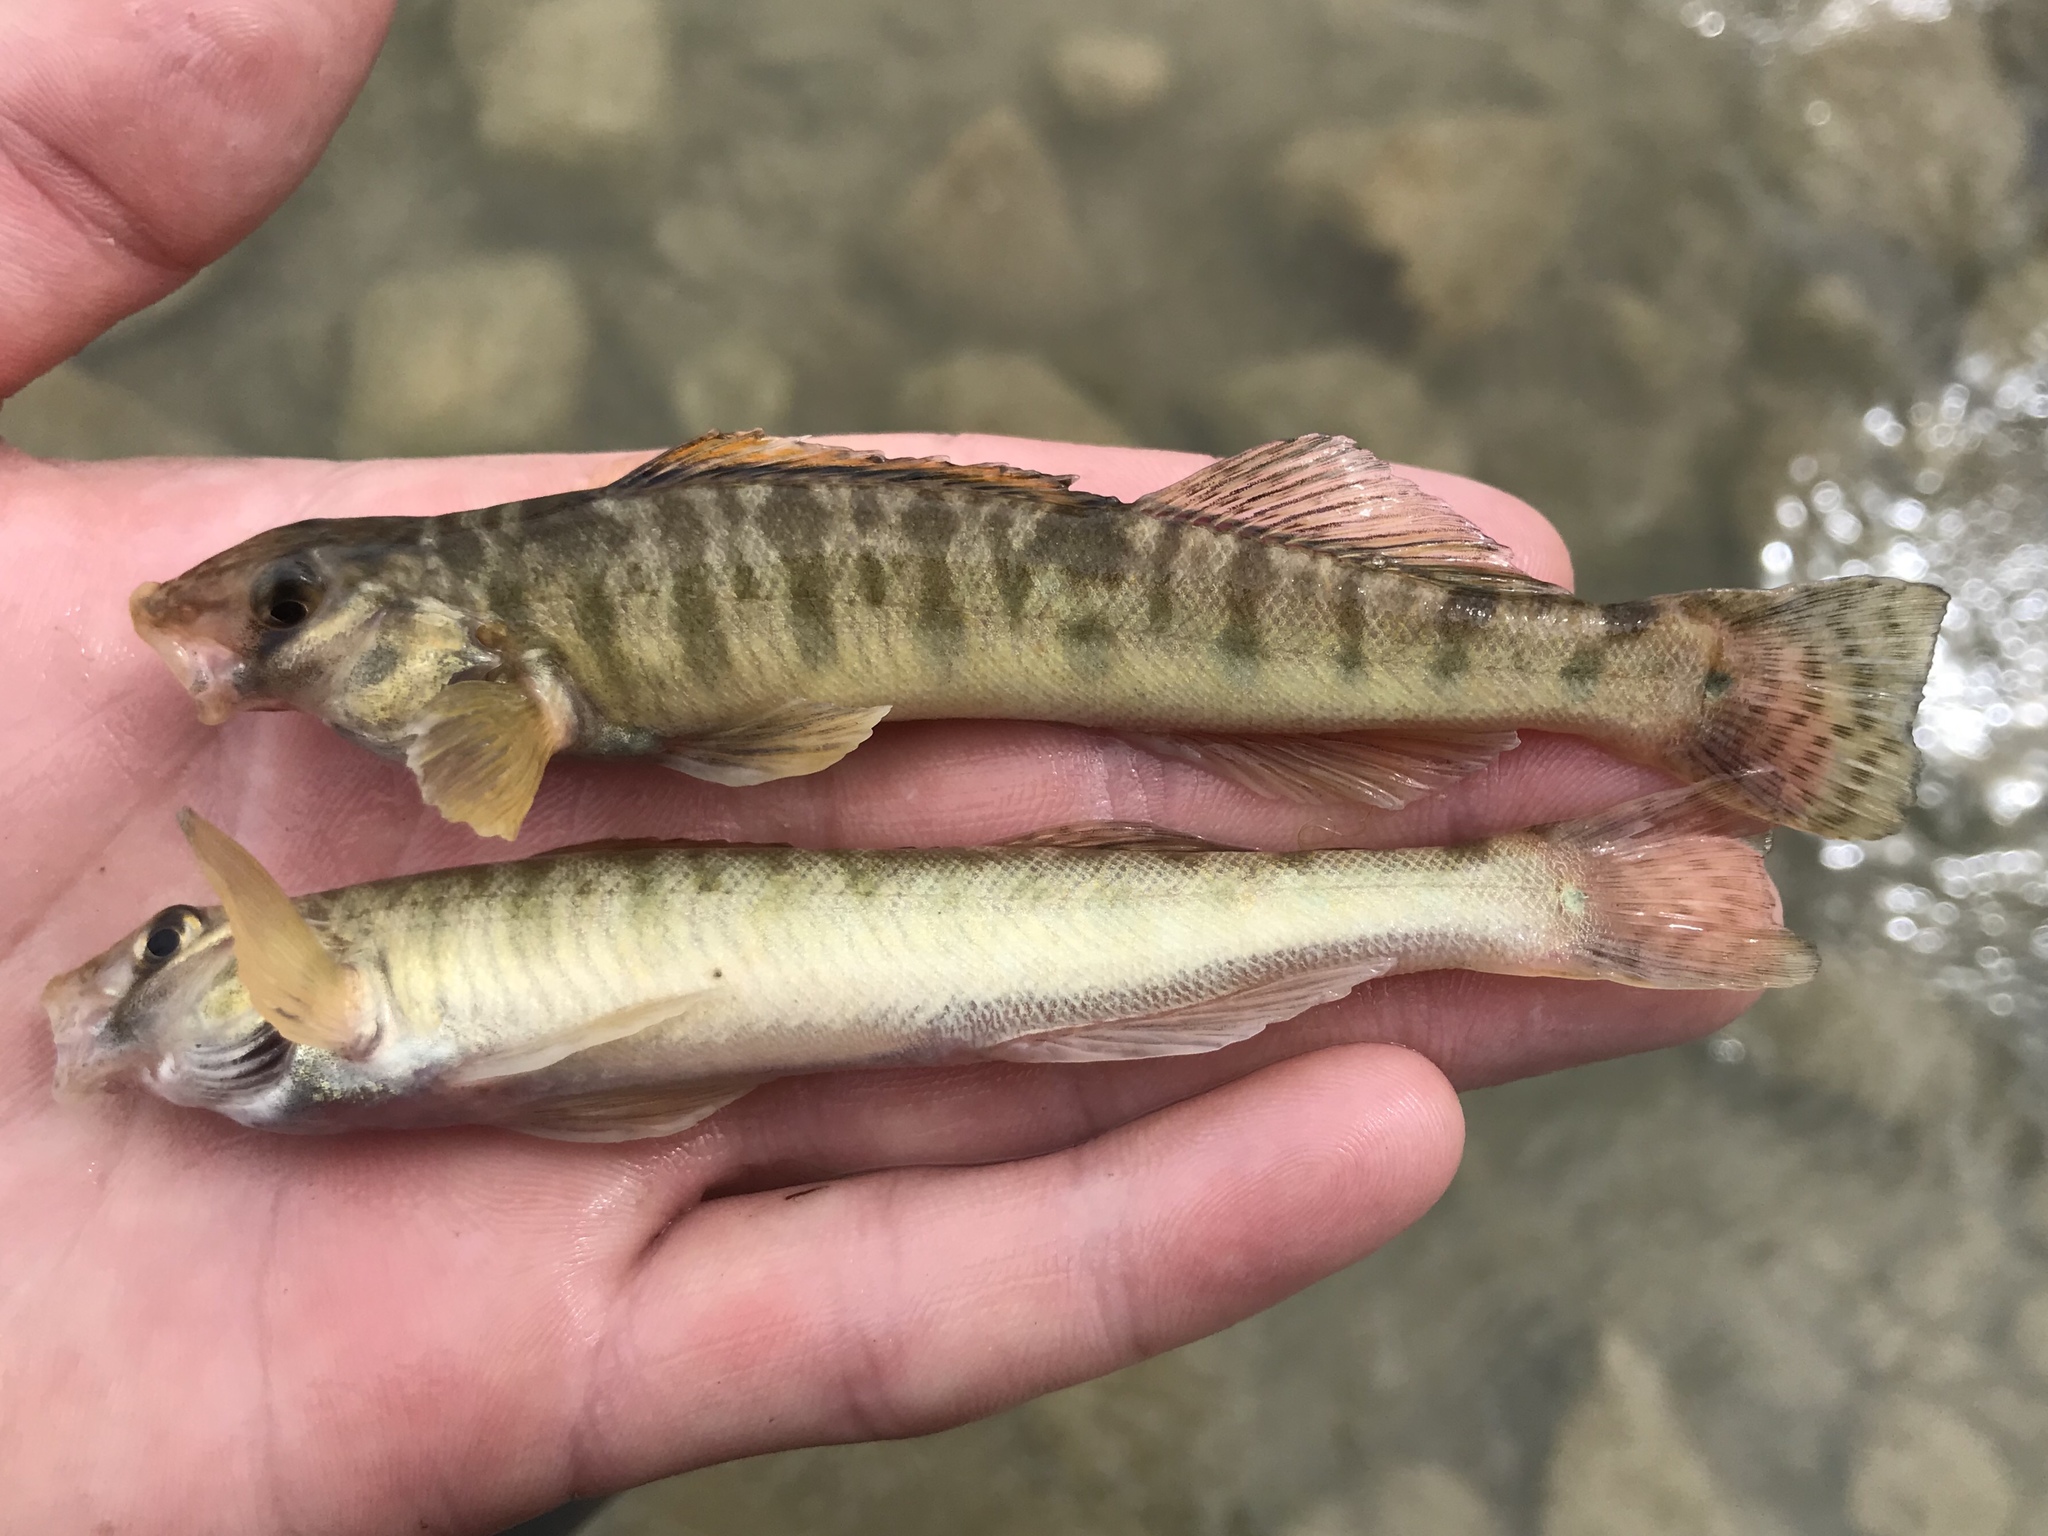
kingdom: Animalia
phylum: Chordata
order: Perciformes
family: Percidae
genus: Percina
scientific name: Percina carbonaria
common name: Texas logperch
